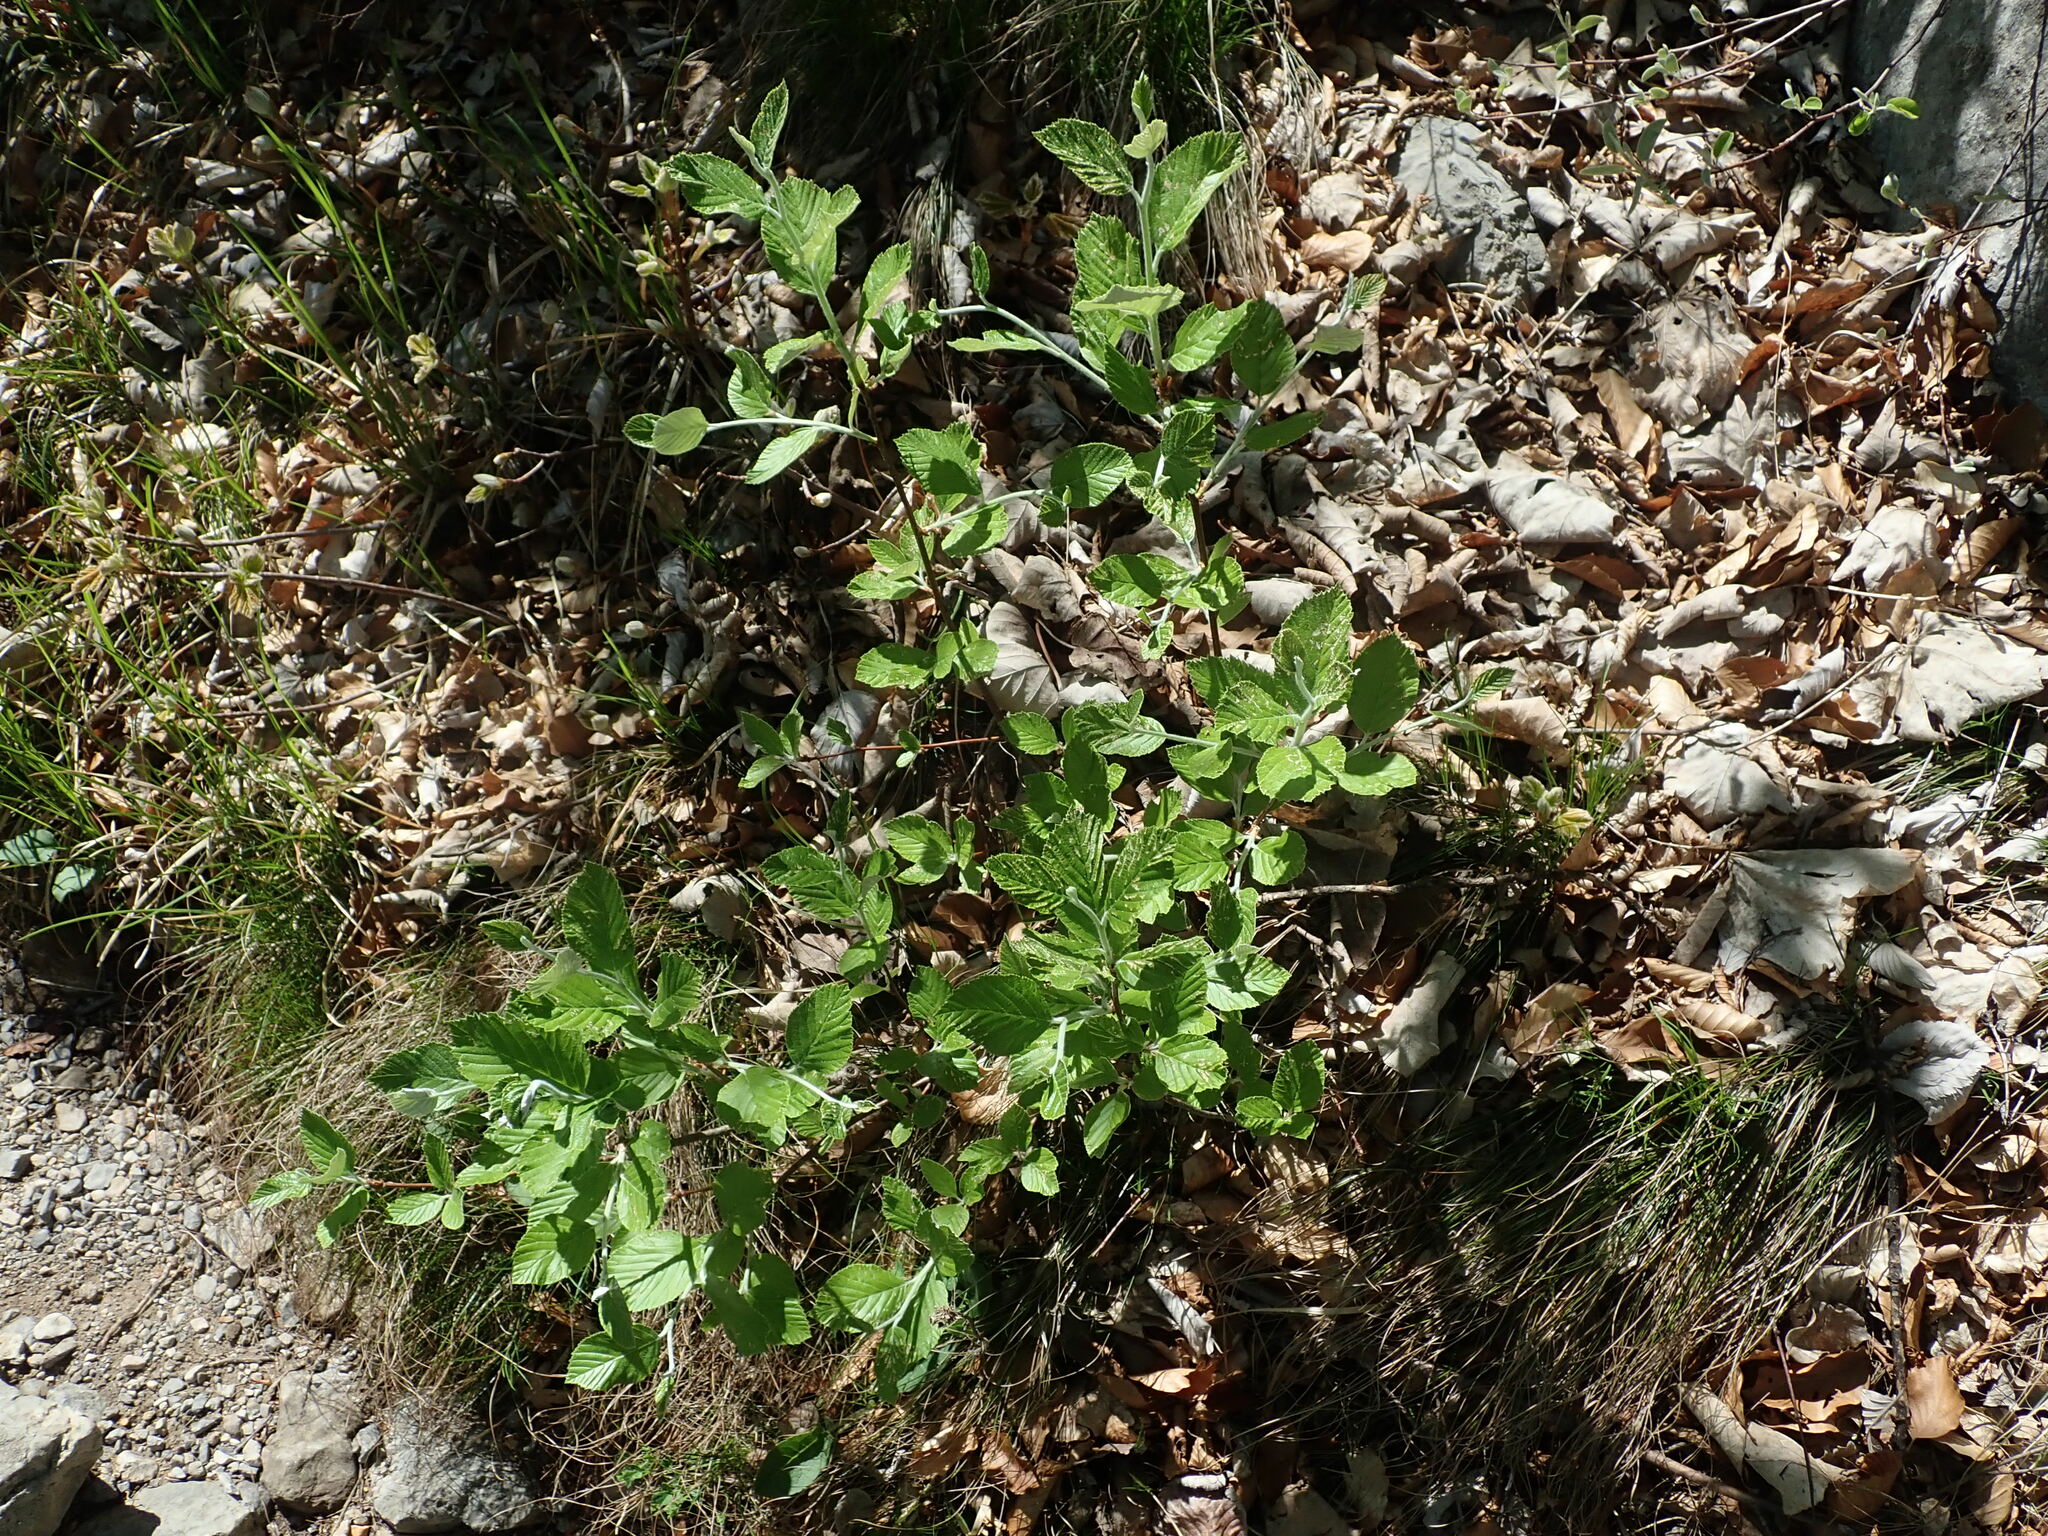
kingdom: Plantae
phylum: Tracheophyta
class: Magnoliopsida
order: Rosales
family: Rosaceae
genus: Aria
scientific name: Aria edulis
